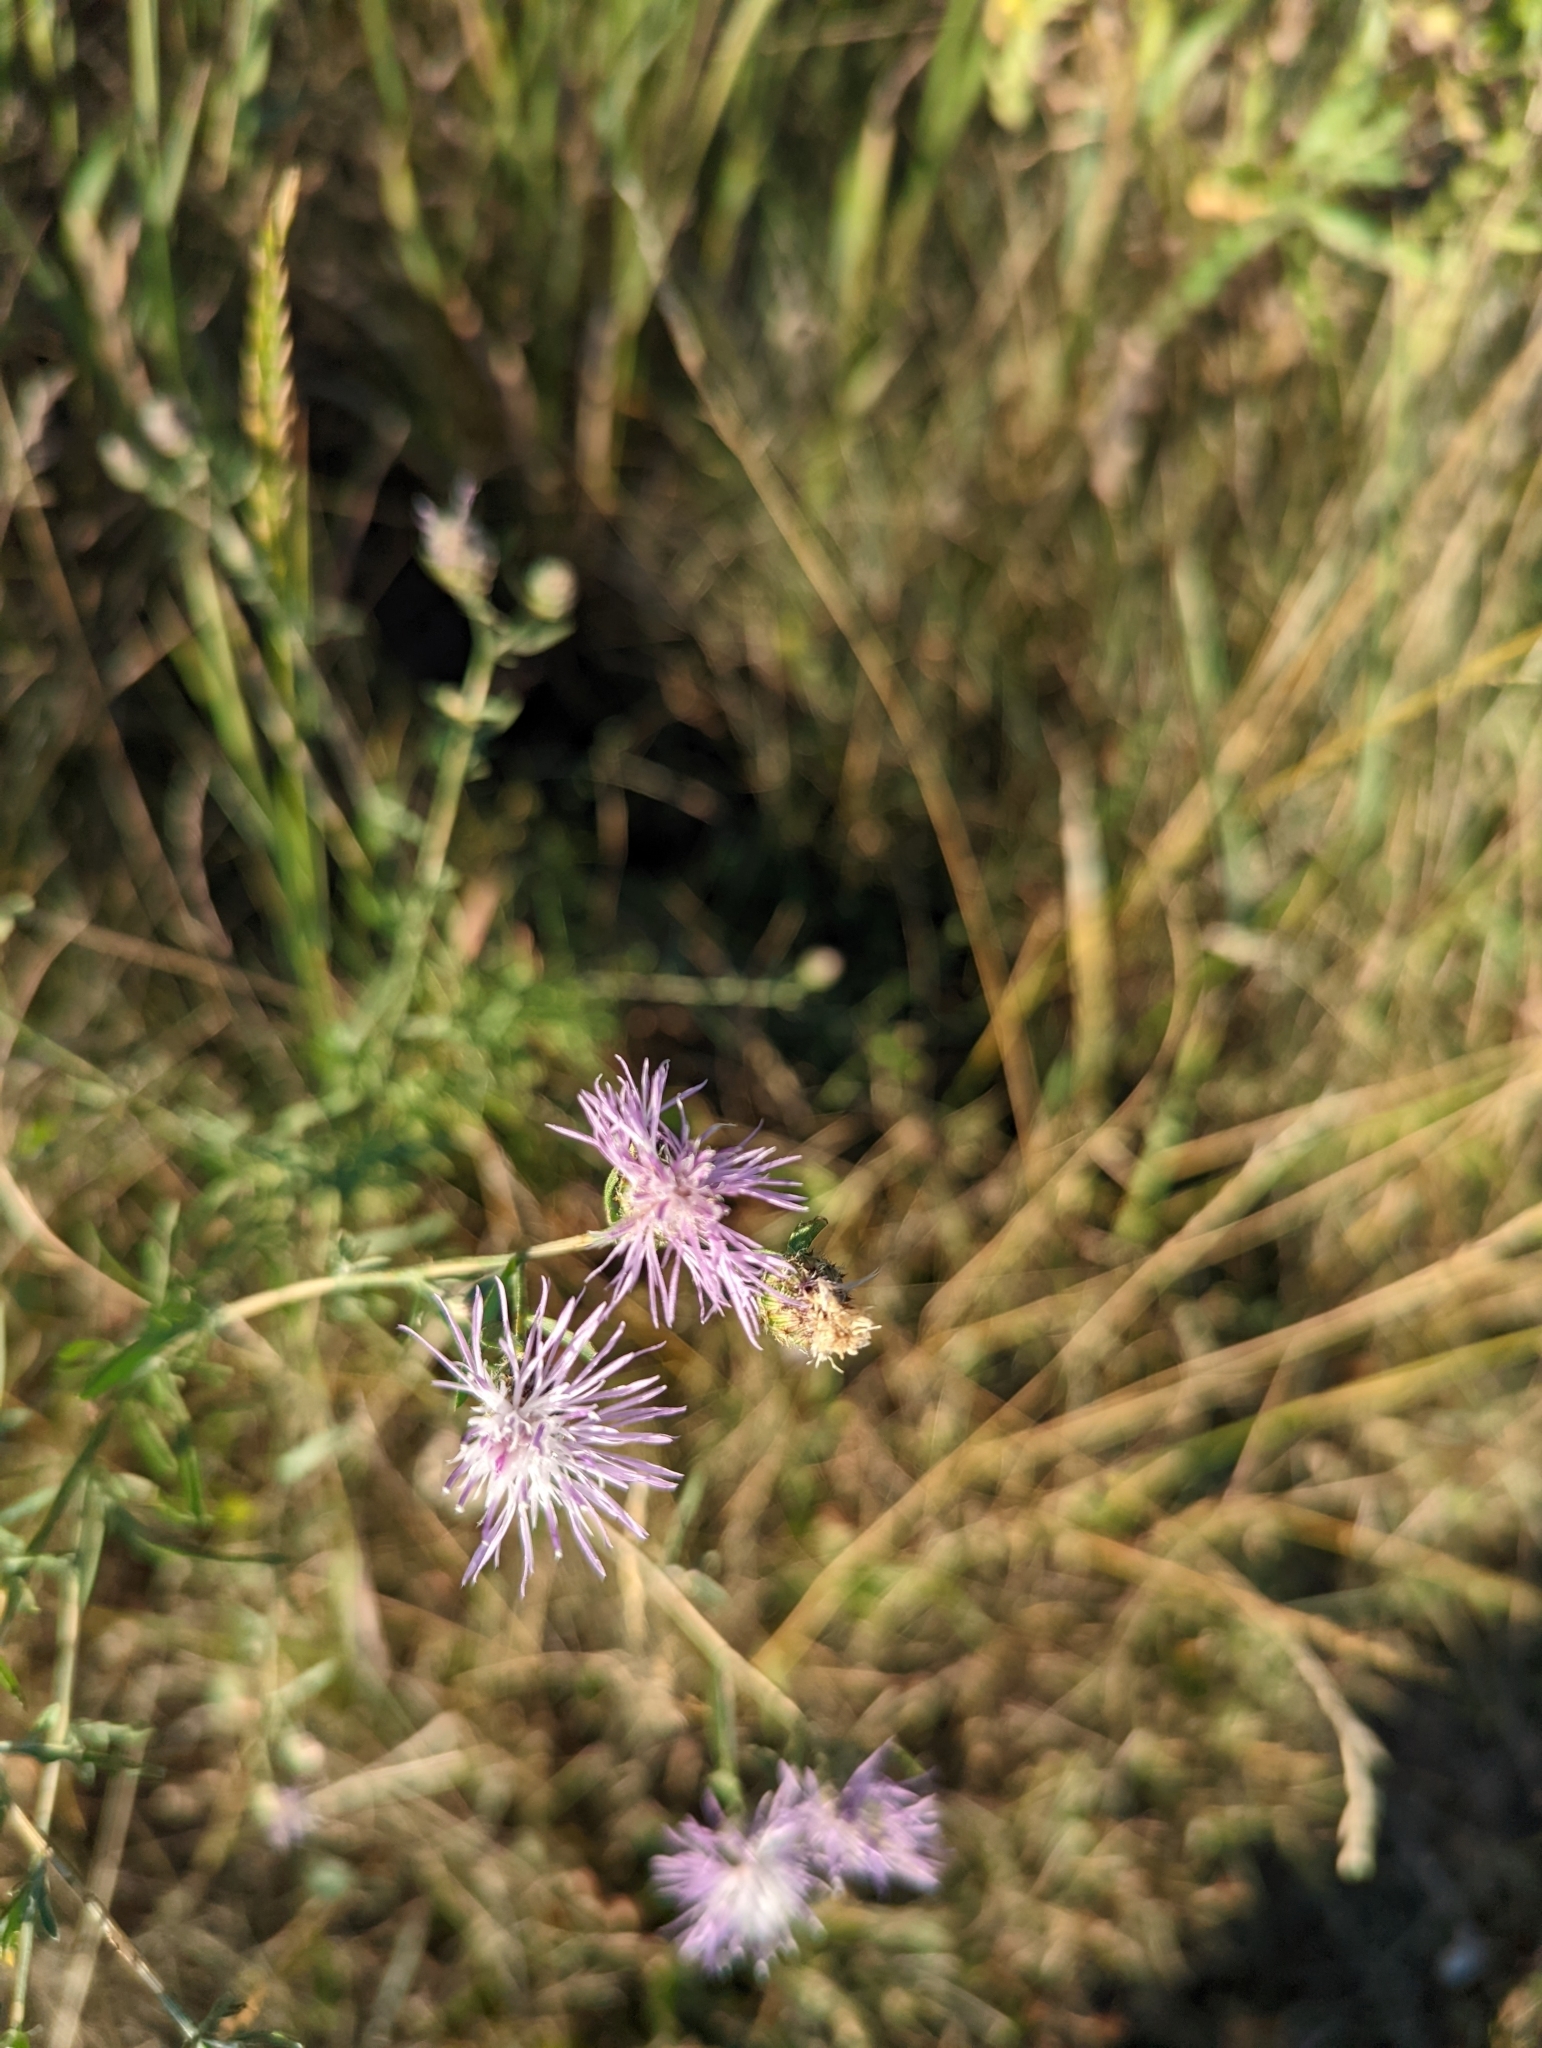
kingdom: Plantae
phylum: Tracheophyta
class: Magnoliopsida
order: Asterales
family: Asteraceae
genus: Centaurea
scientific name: Centaurea stoebe
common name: Spotted knapweed
